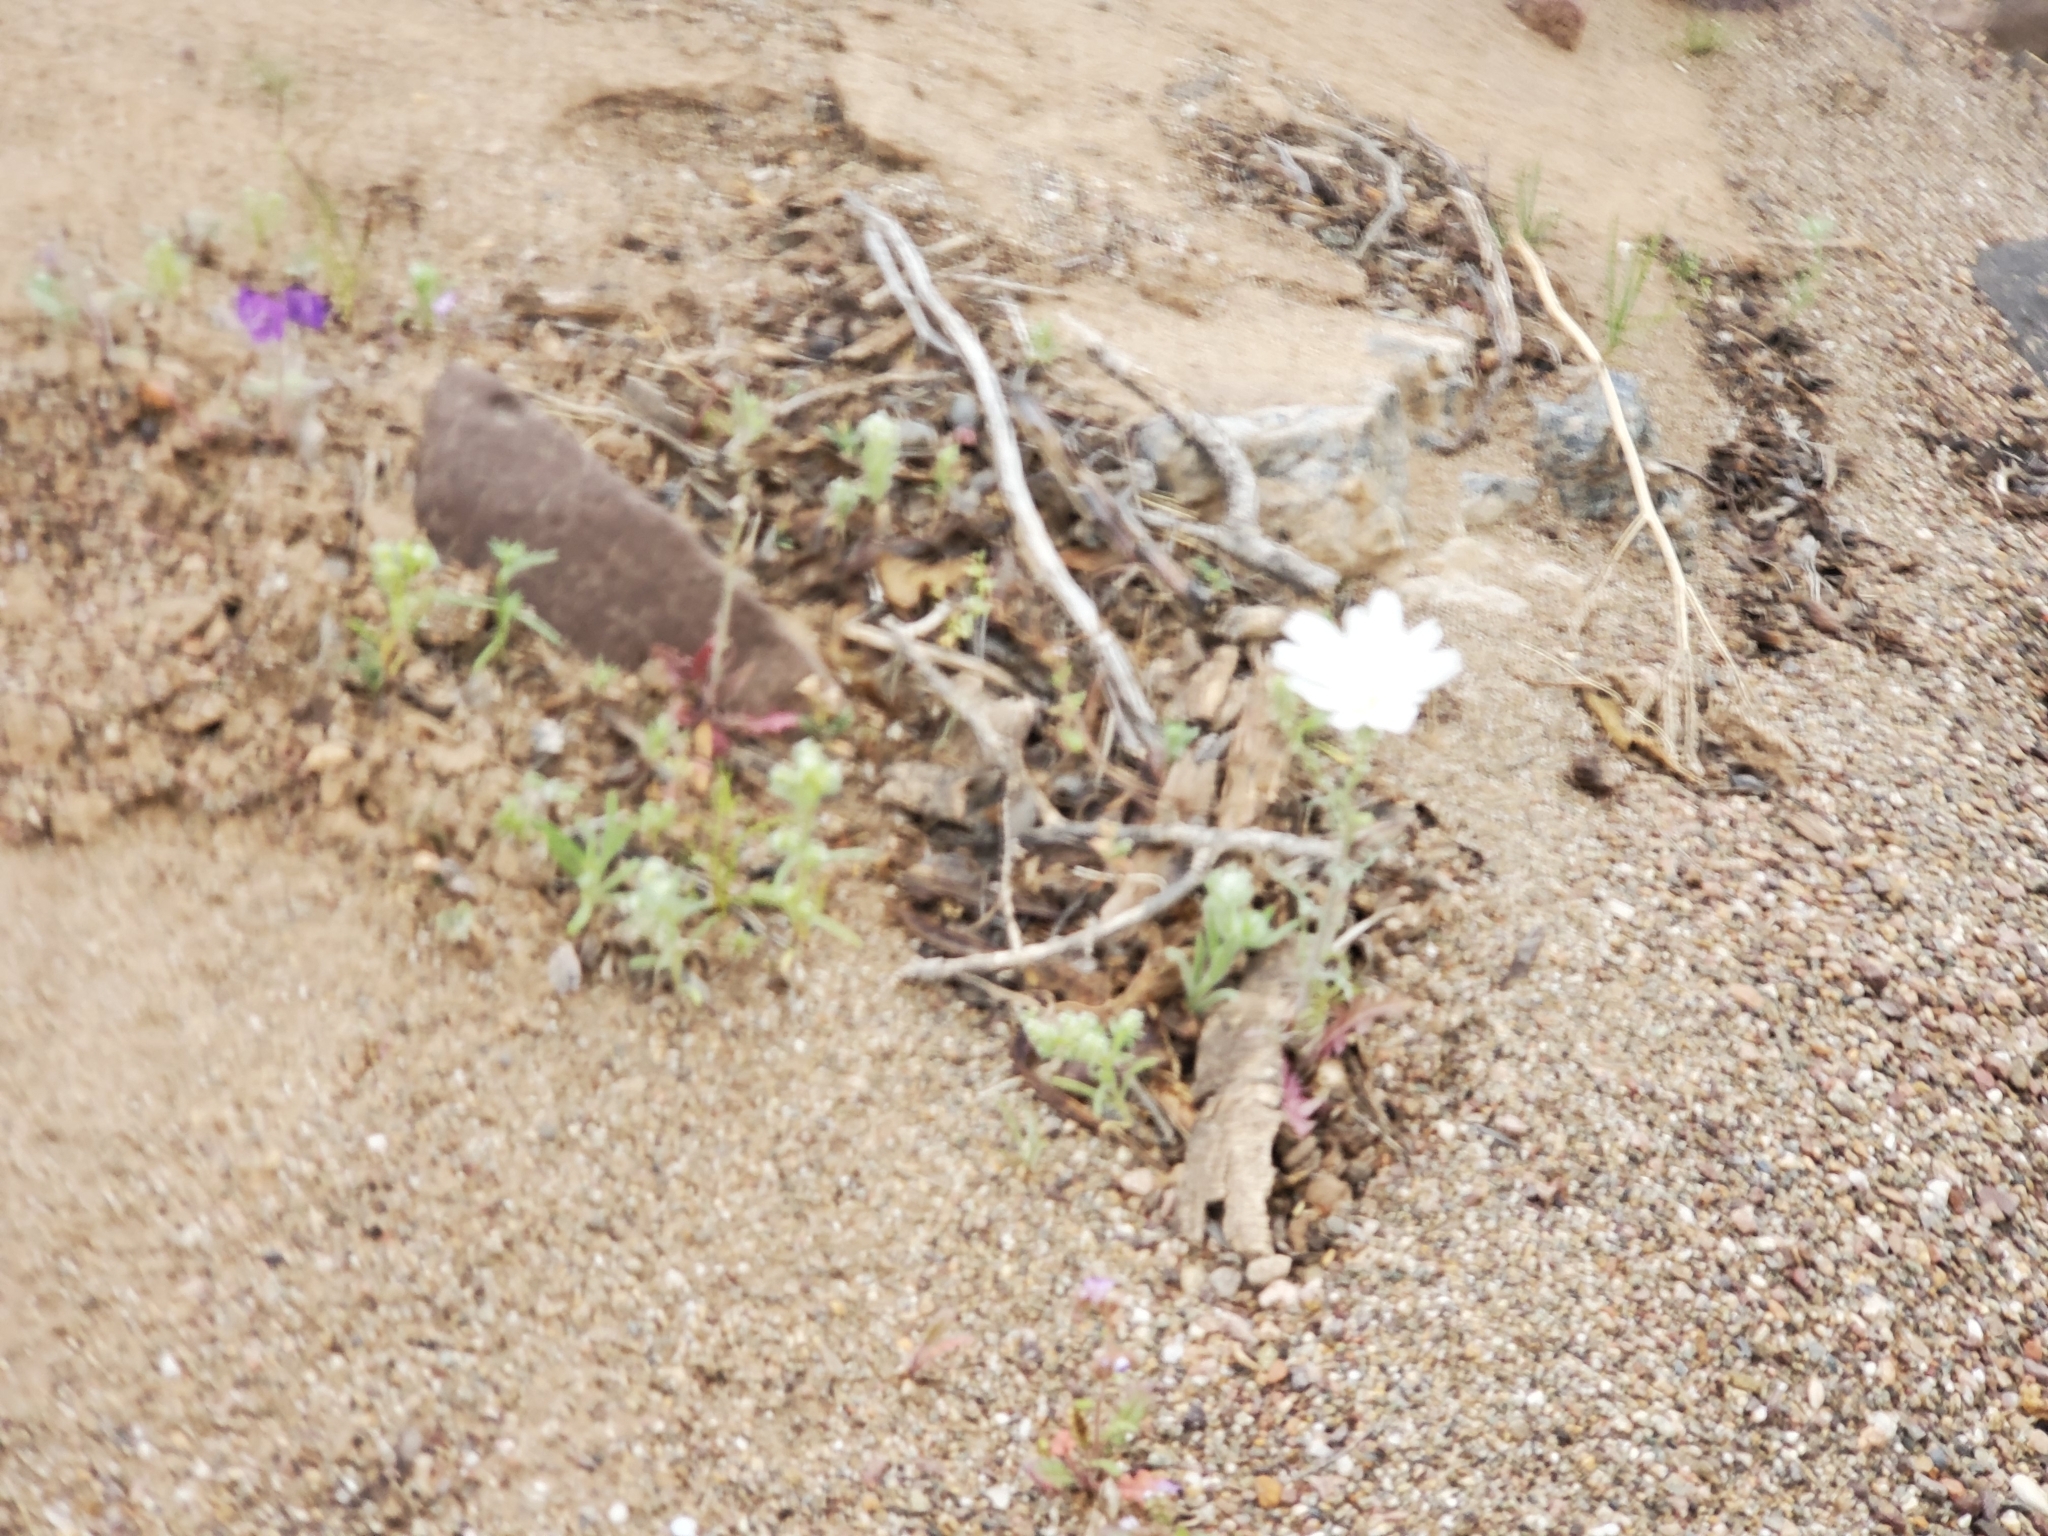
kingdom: Plantae
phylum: Tracheophyta
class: Magnoliopsida
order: Asterales
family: Asteraceae
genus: Rafinesquia
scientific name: Rafinesquia neomexicana
